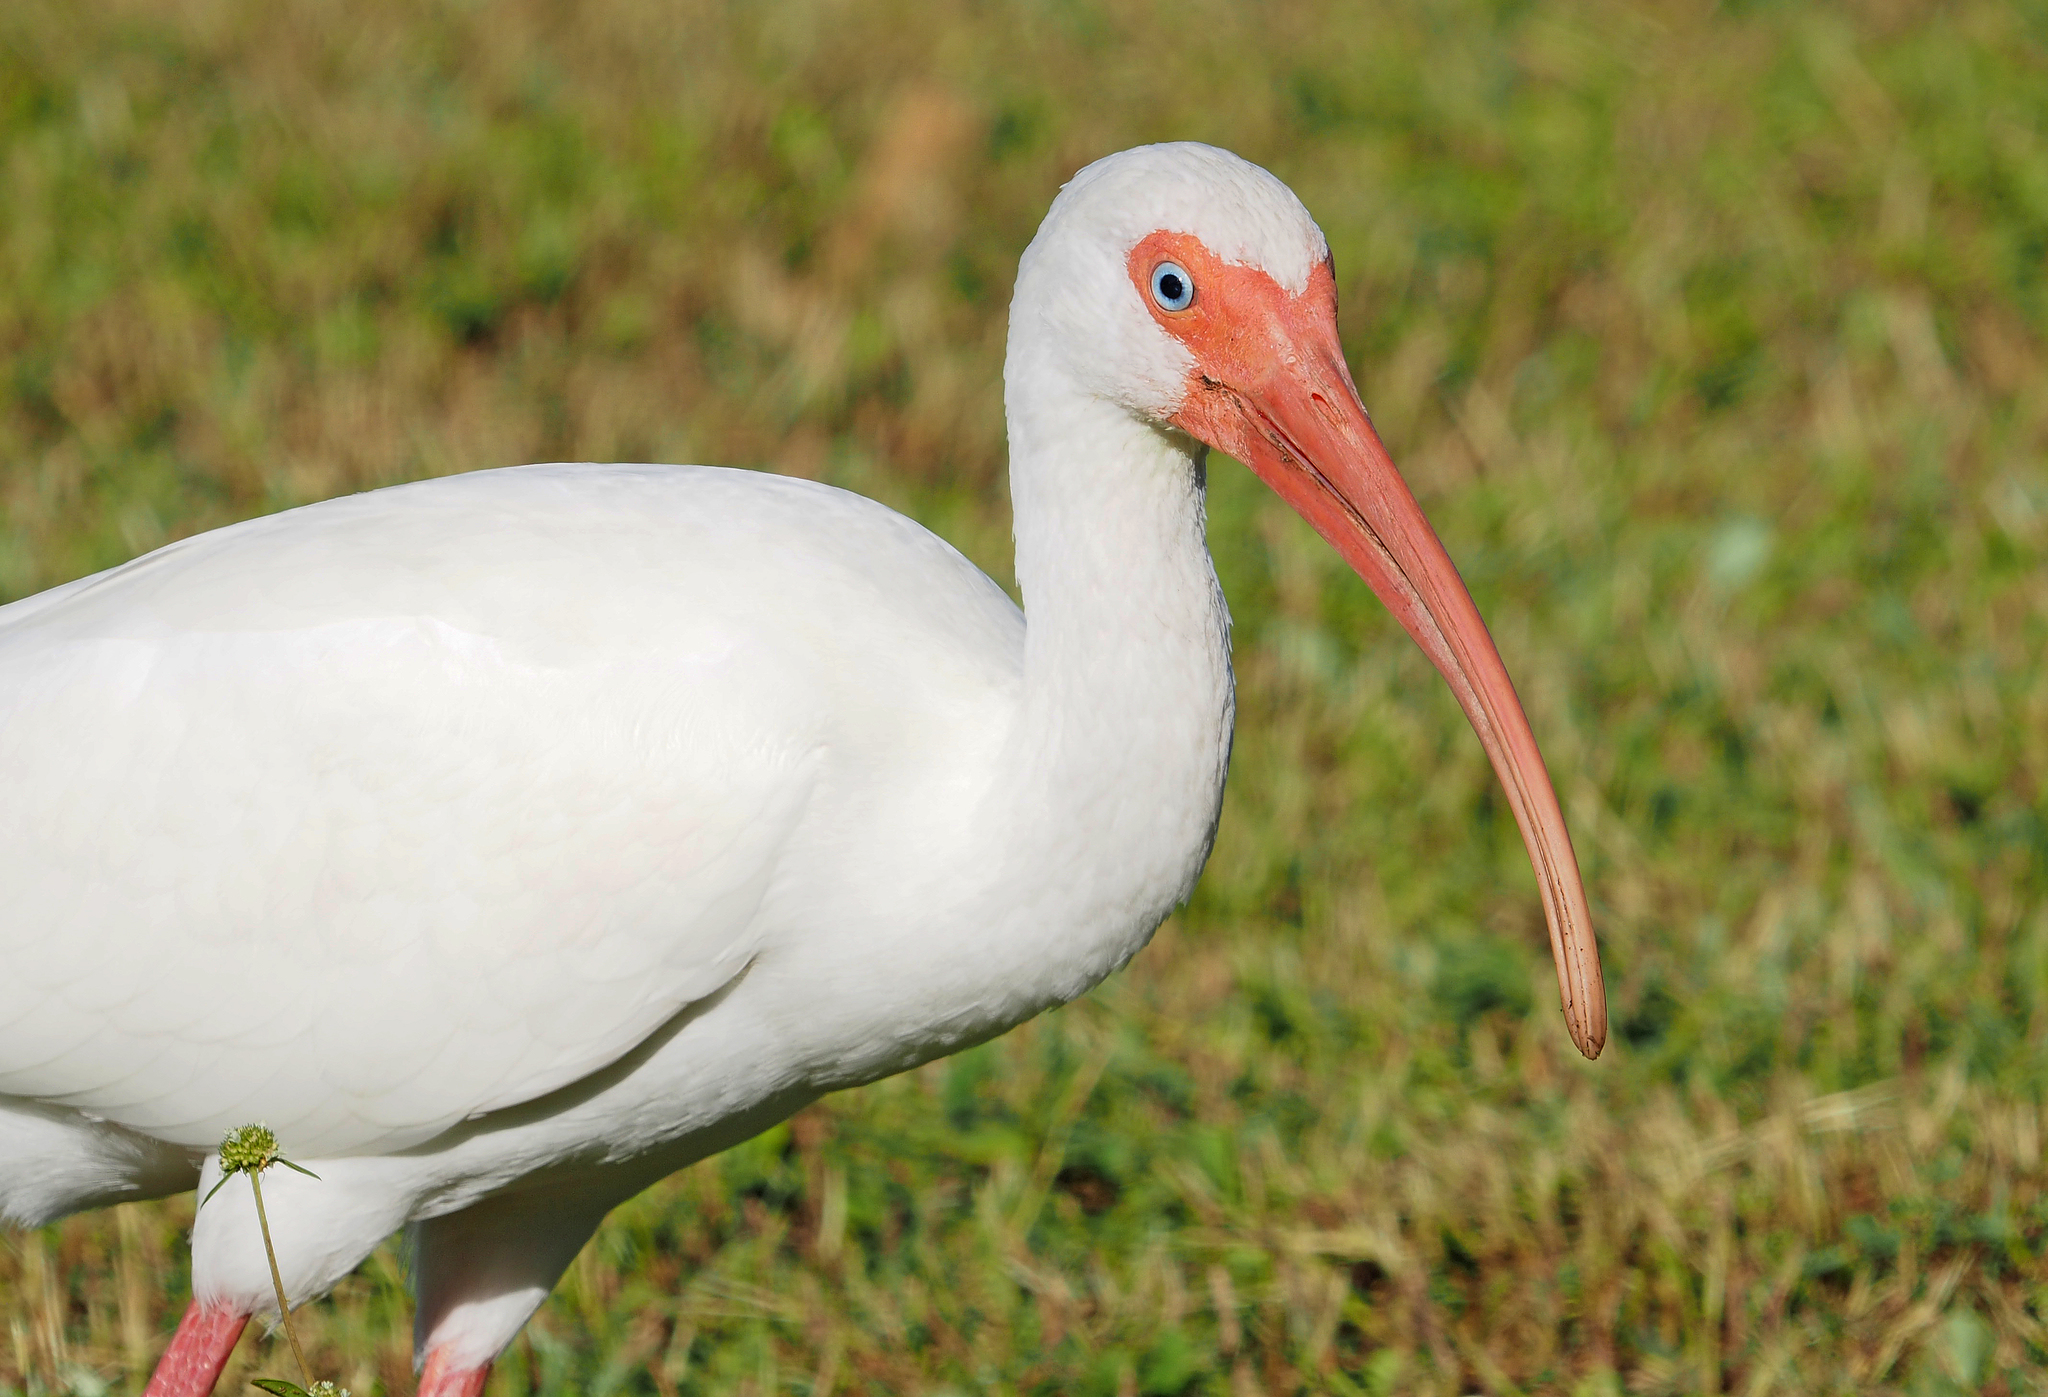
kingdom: Animalia
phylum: Chordata
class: Aves
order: Pelecaniformes
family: Threskiornithidae
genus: Eudocimus
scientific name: Eudocimus albus
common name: White ibis
